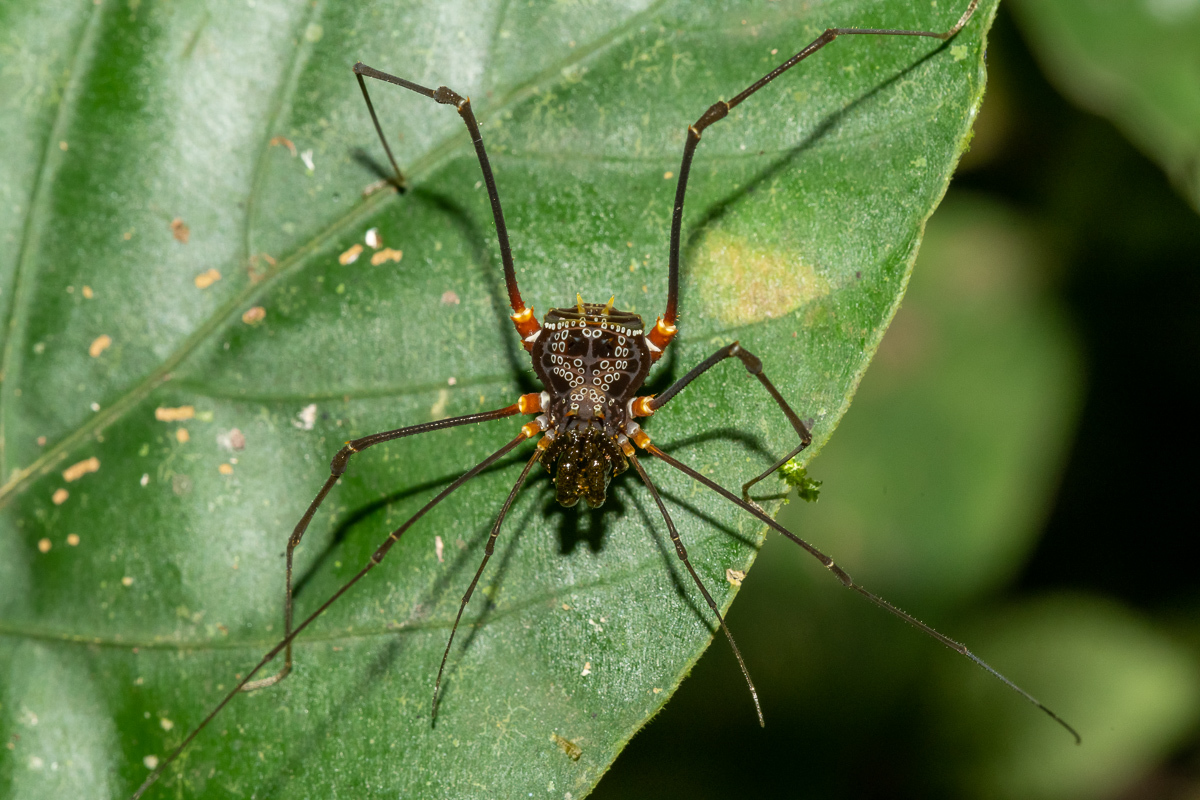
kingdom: Animalia
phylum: Arthropoda
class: Arachnida
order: Opiliones
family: Cranaidae
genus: Phareicranaus
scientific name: Phareicranaus gracilis
